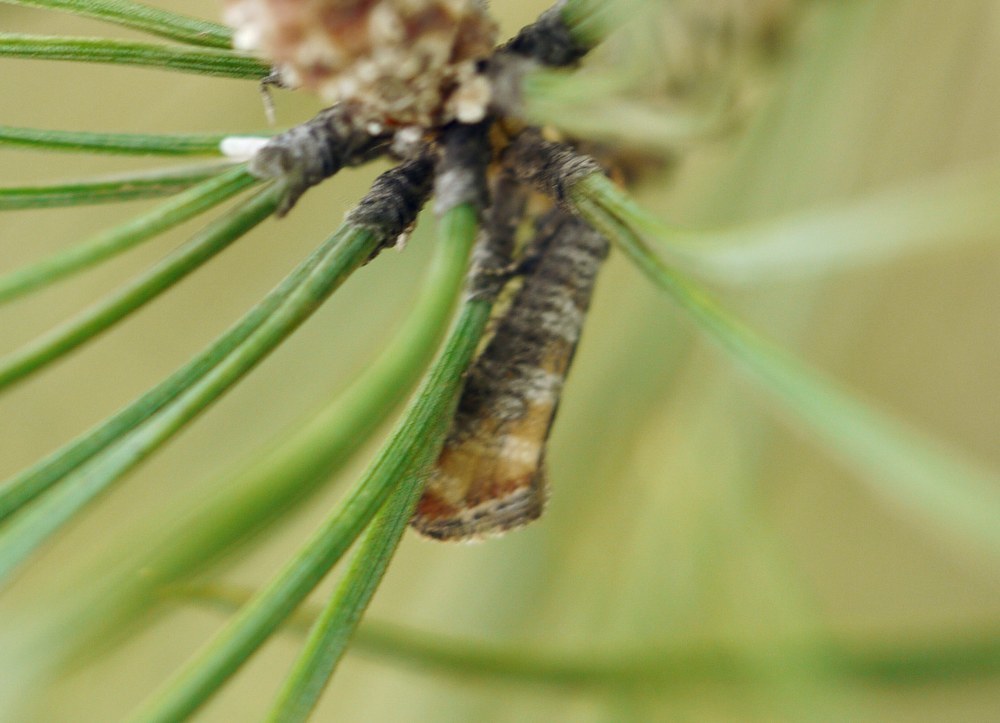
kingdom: Animalia
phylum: Arthropoda
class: Insecta
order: Lepidoptera
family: Tortricidae
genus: Rhyacionia
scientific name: Rhyacionia duplana
